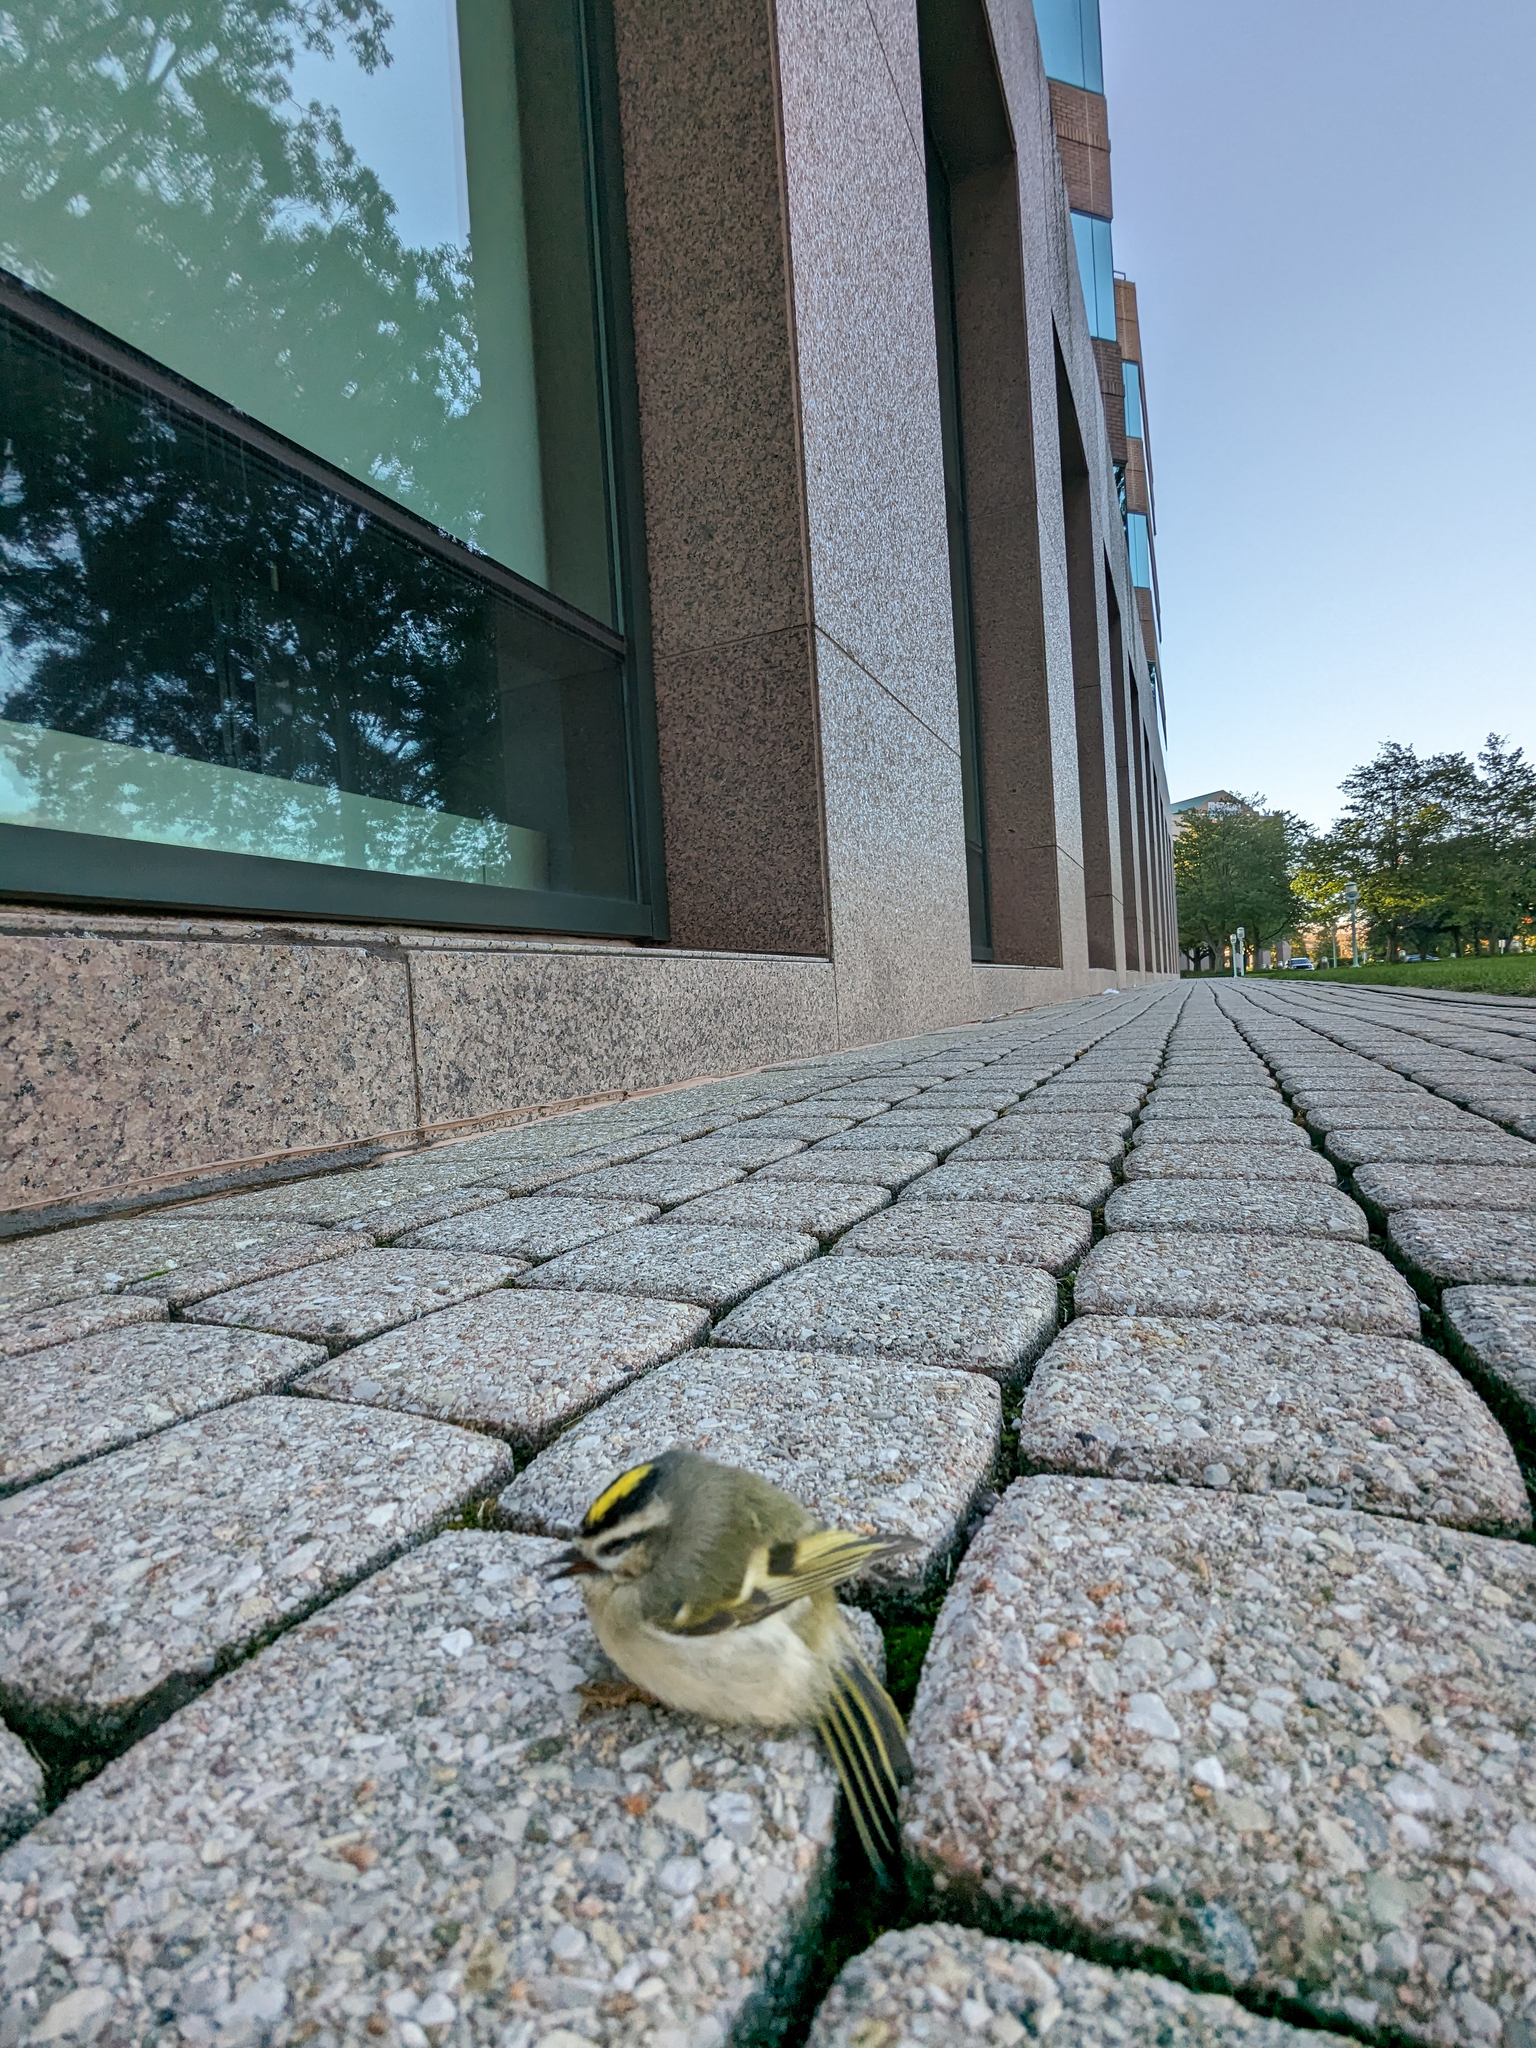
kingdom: Animalia
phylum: Chordata
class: Aves
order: Passeriformes
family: Regulidae
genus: Regulus
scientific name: Regulus satrapa
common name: Golden-crowned kinglet
